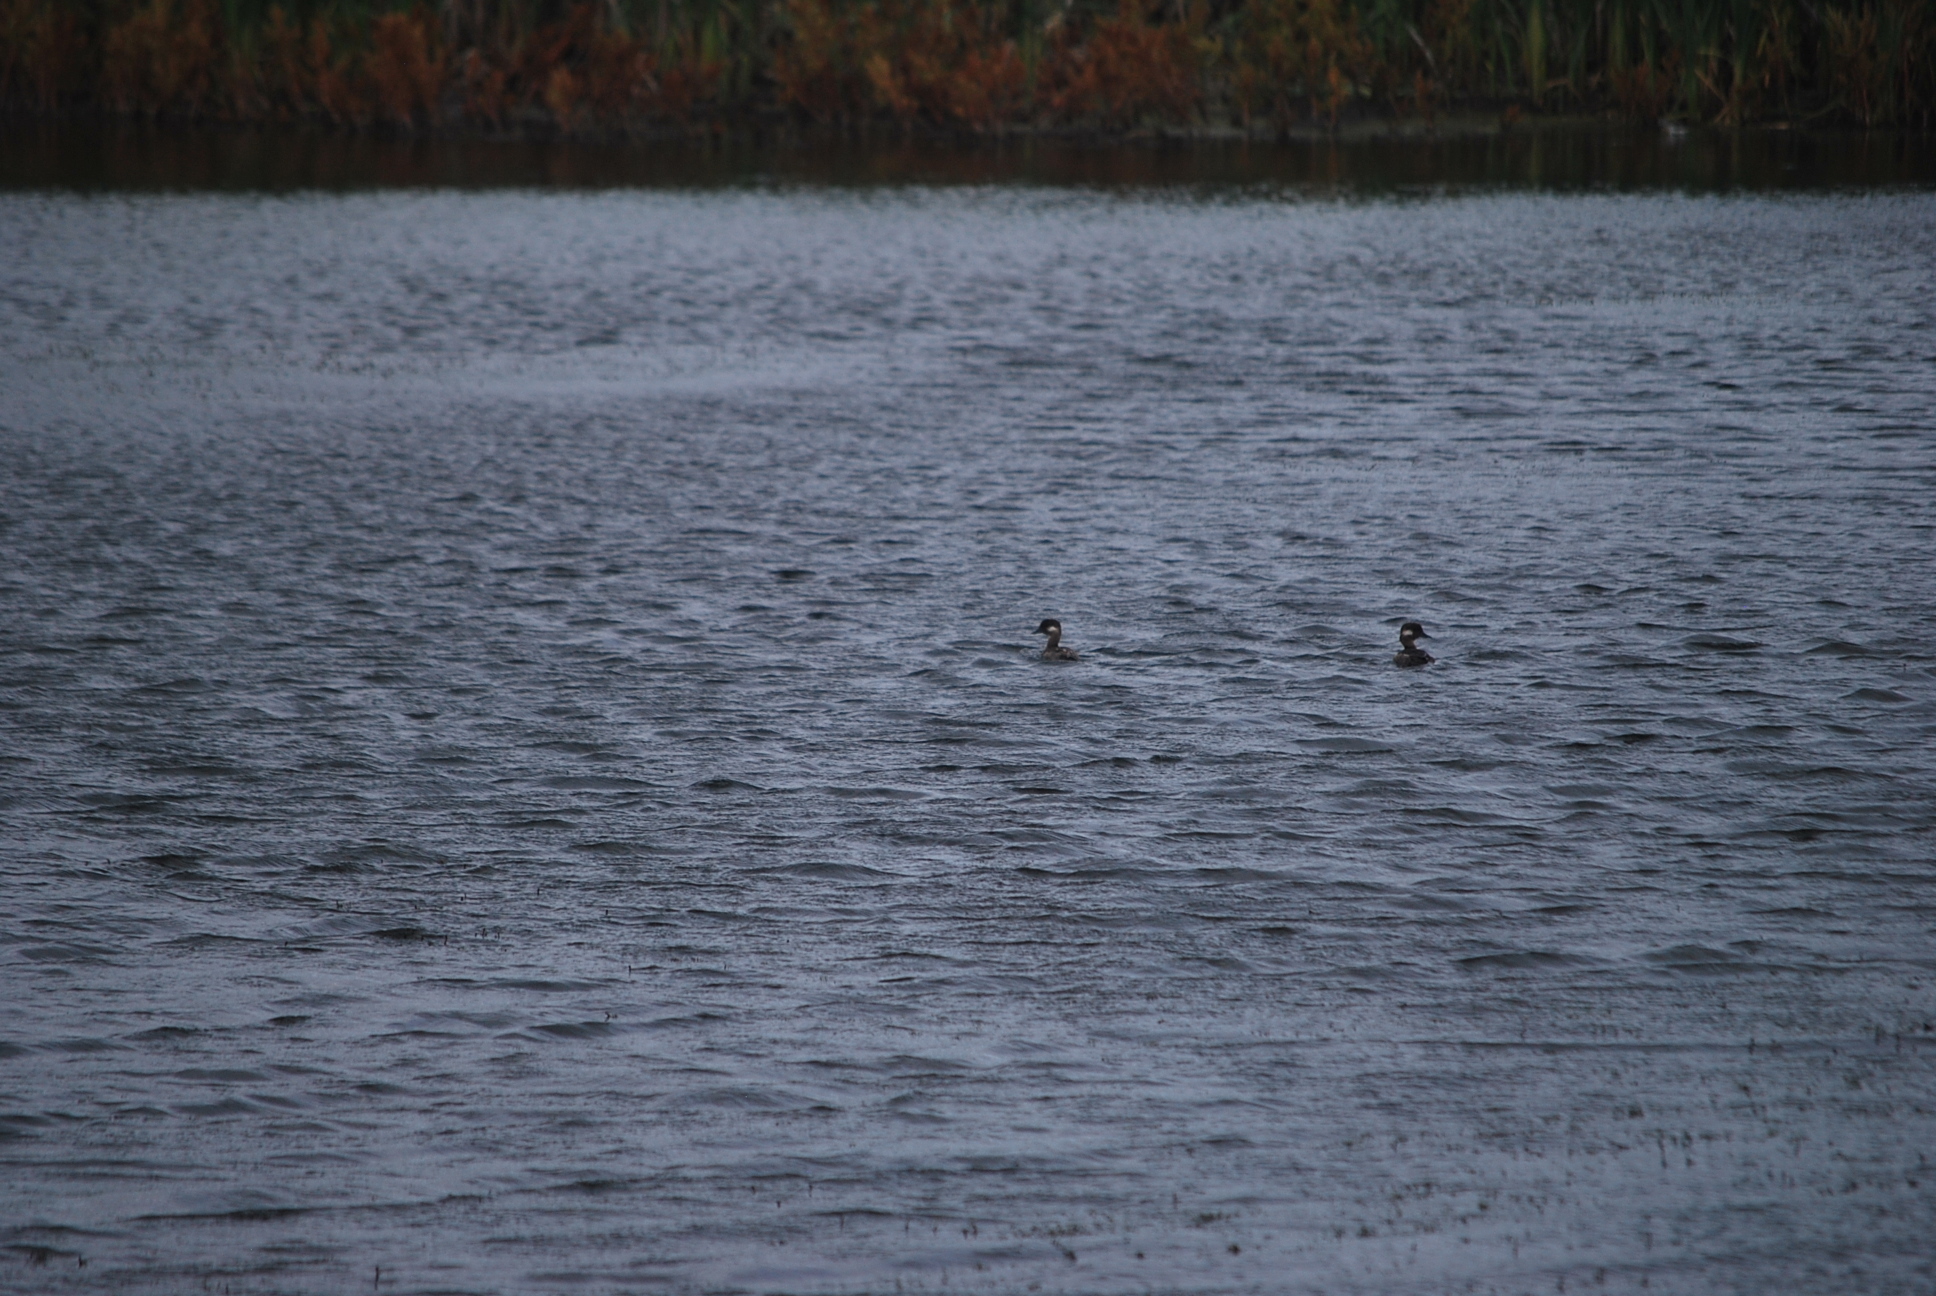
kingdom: Animalia
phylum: Chordata
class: Aves
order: Anseriformes
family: Anatidae
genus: Bucephala
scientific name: Bucephala albeola
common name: Bufflehead
